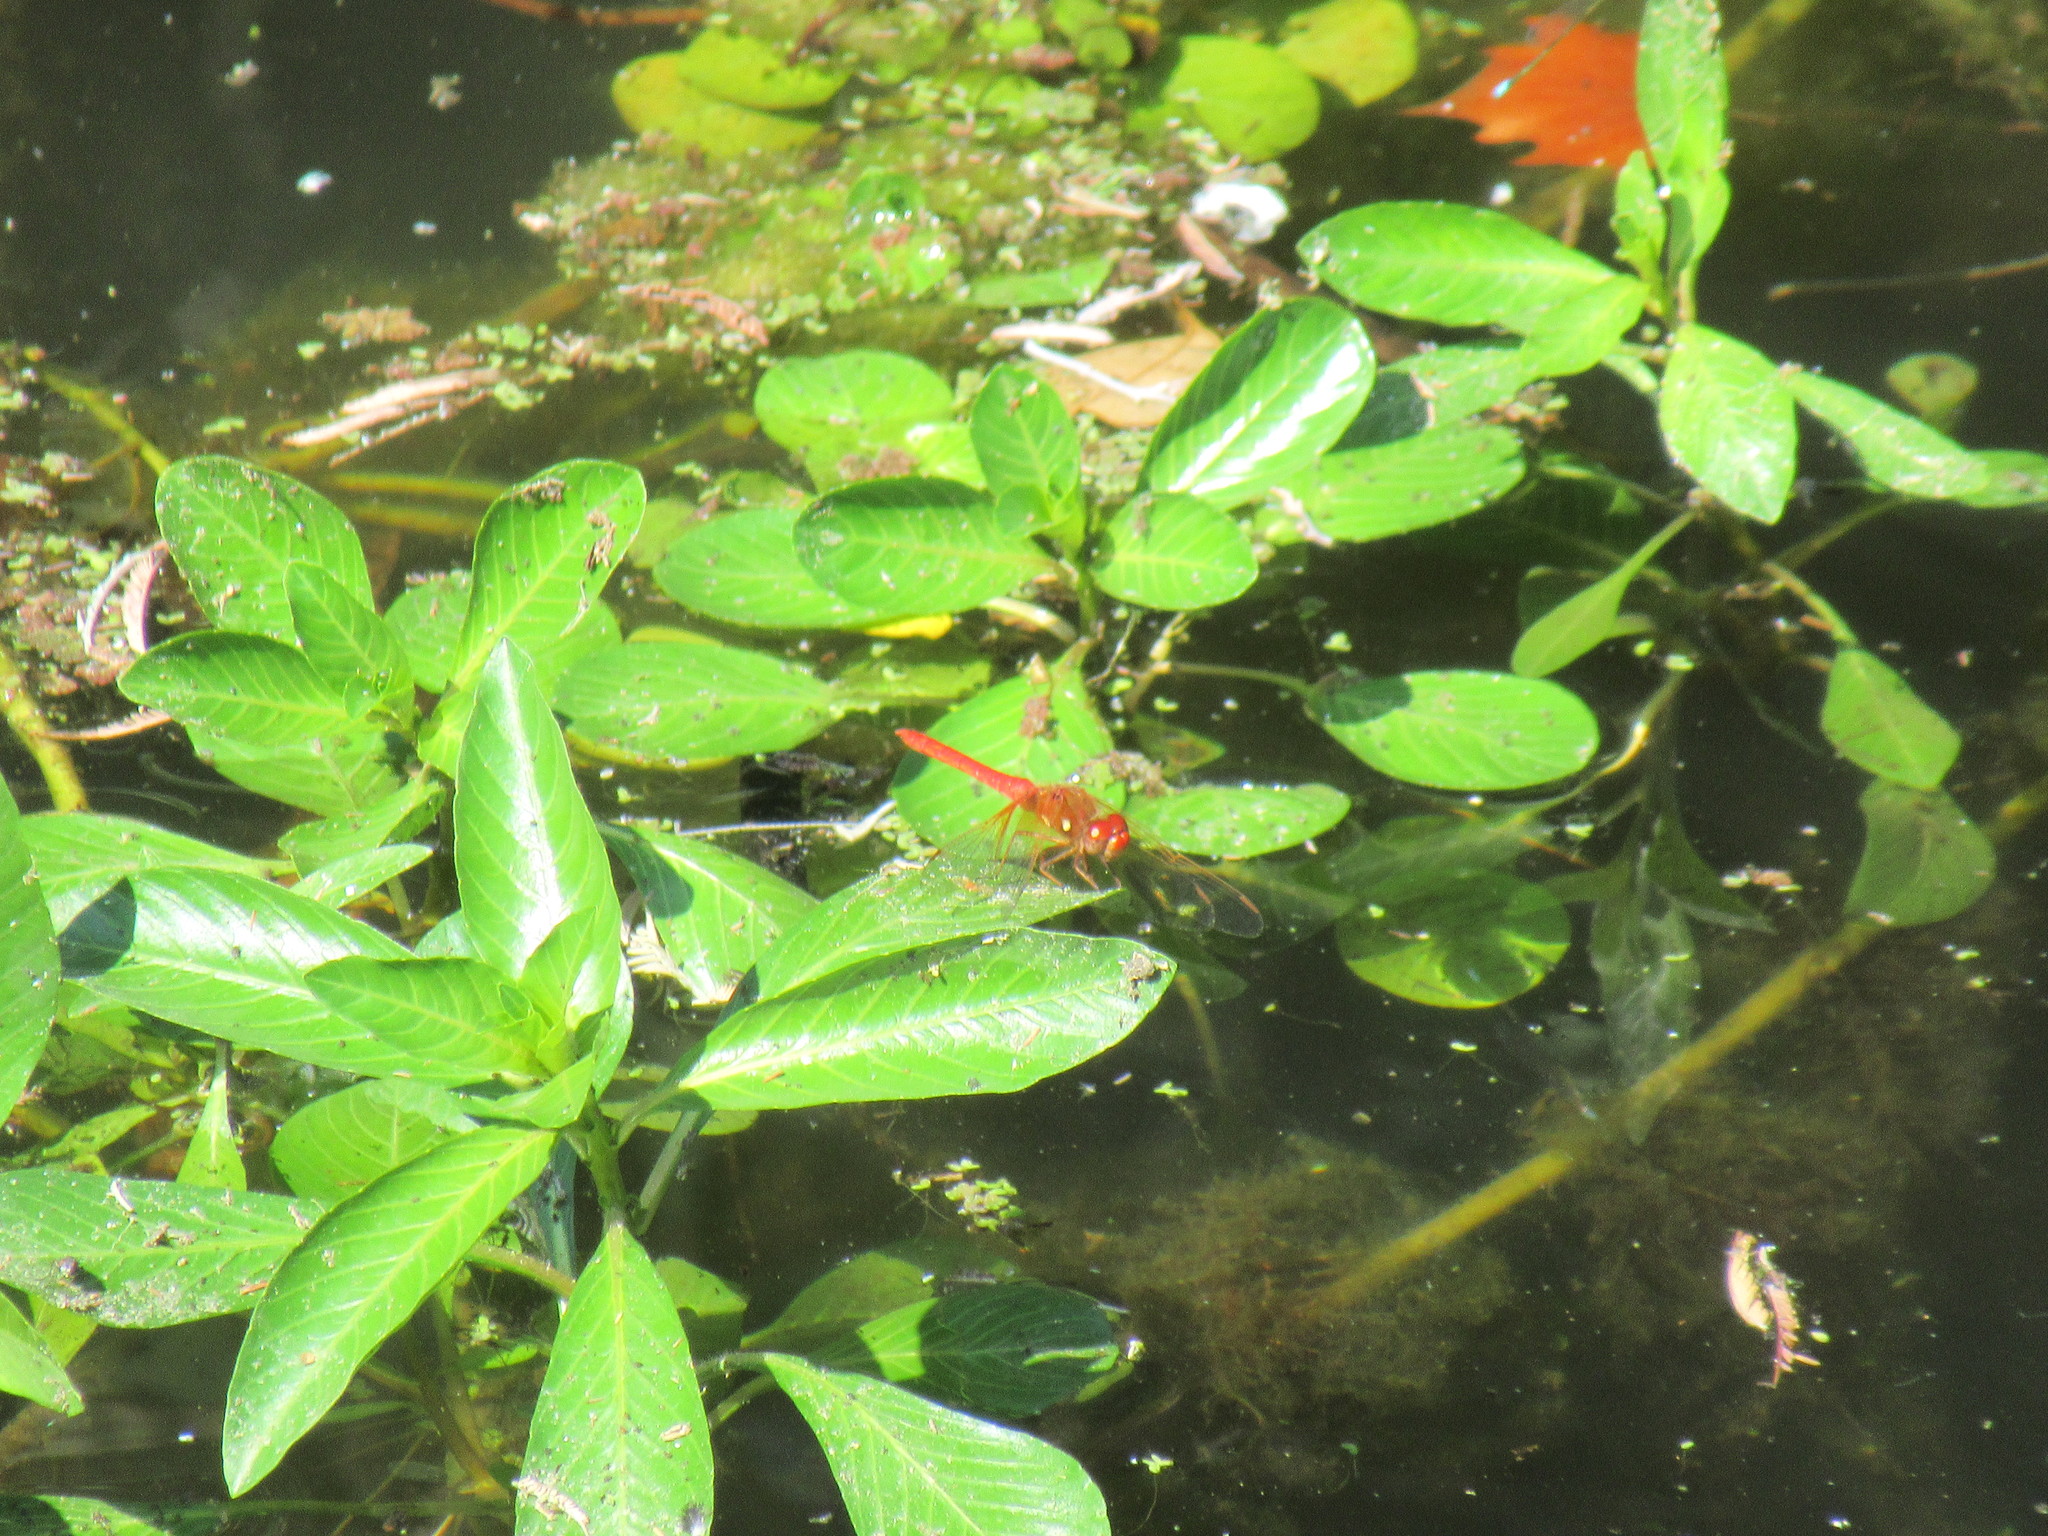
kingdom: Animalia
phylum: Arthropoda
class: Insecta
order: Odonata
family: Libellulidae
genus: Sympetrum
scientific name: Sympetrum illotum
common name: Cardinal meadowhawk
